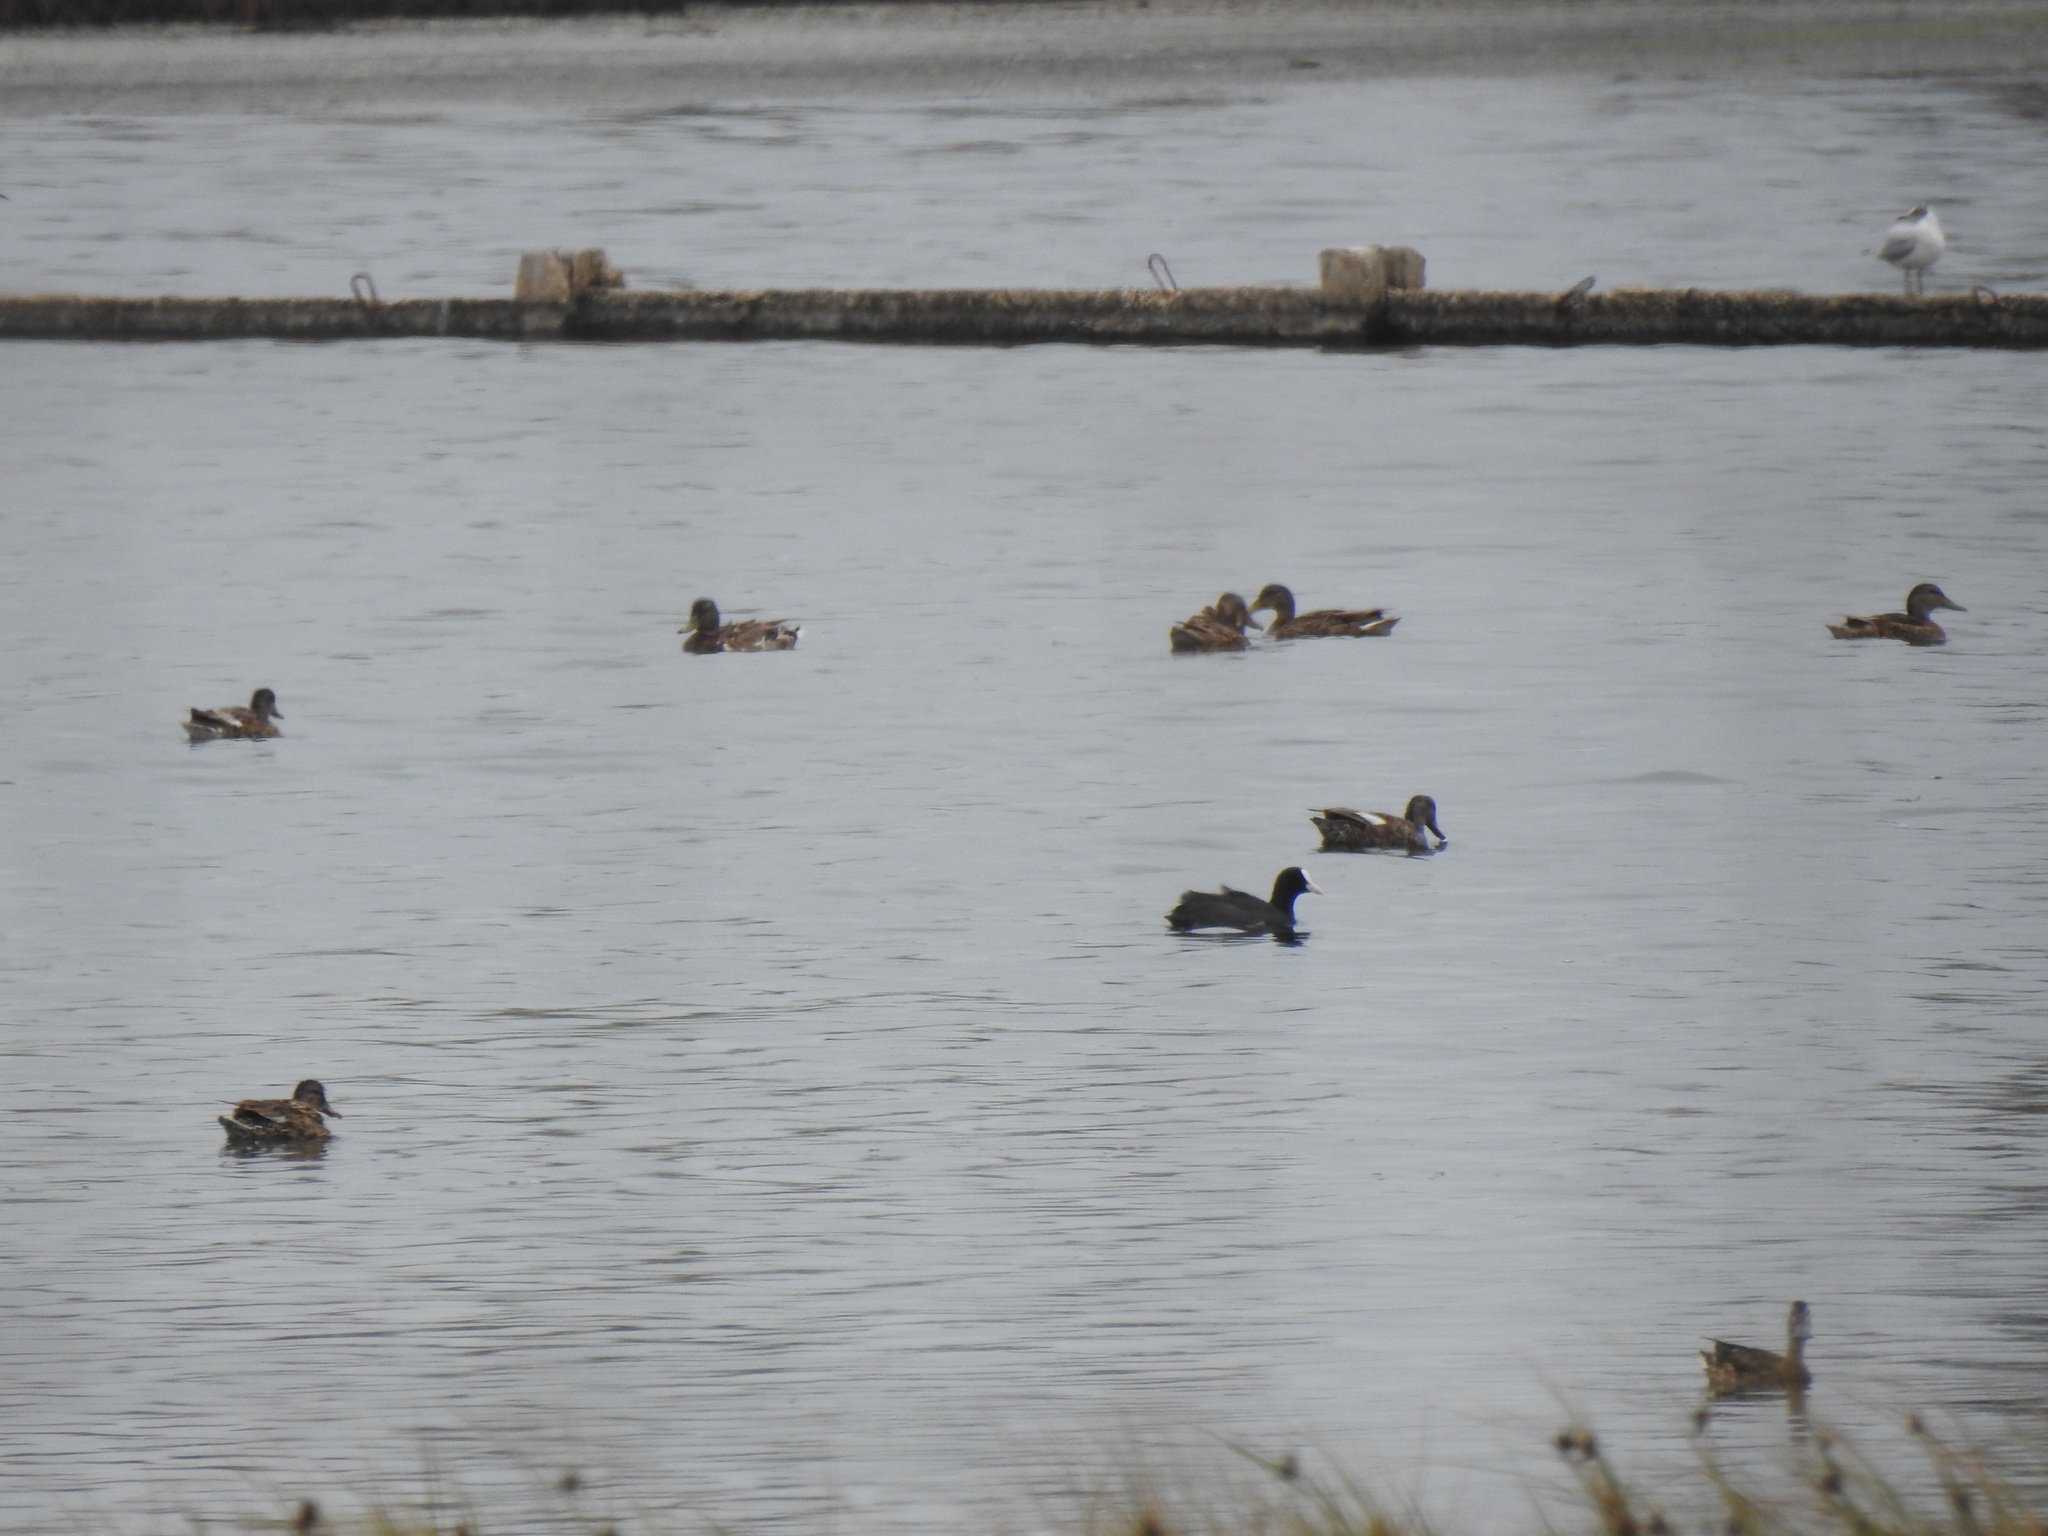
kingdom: Animalia
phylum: Chordata
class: Aves
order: Anseriformes
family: Anatidae
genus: Mareca
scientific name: Mareca strepera
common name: Gadwall
